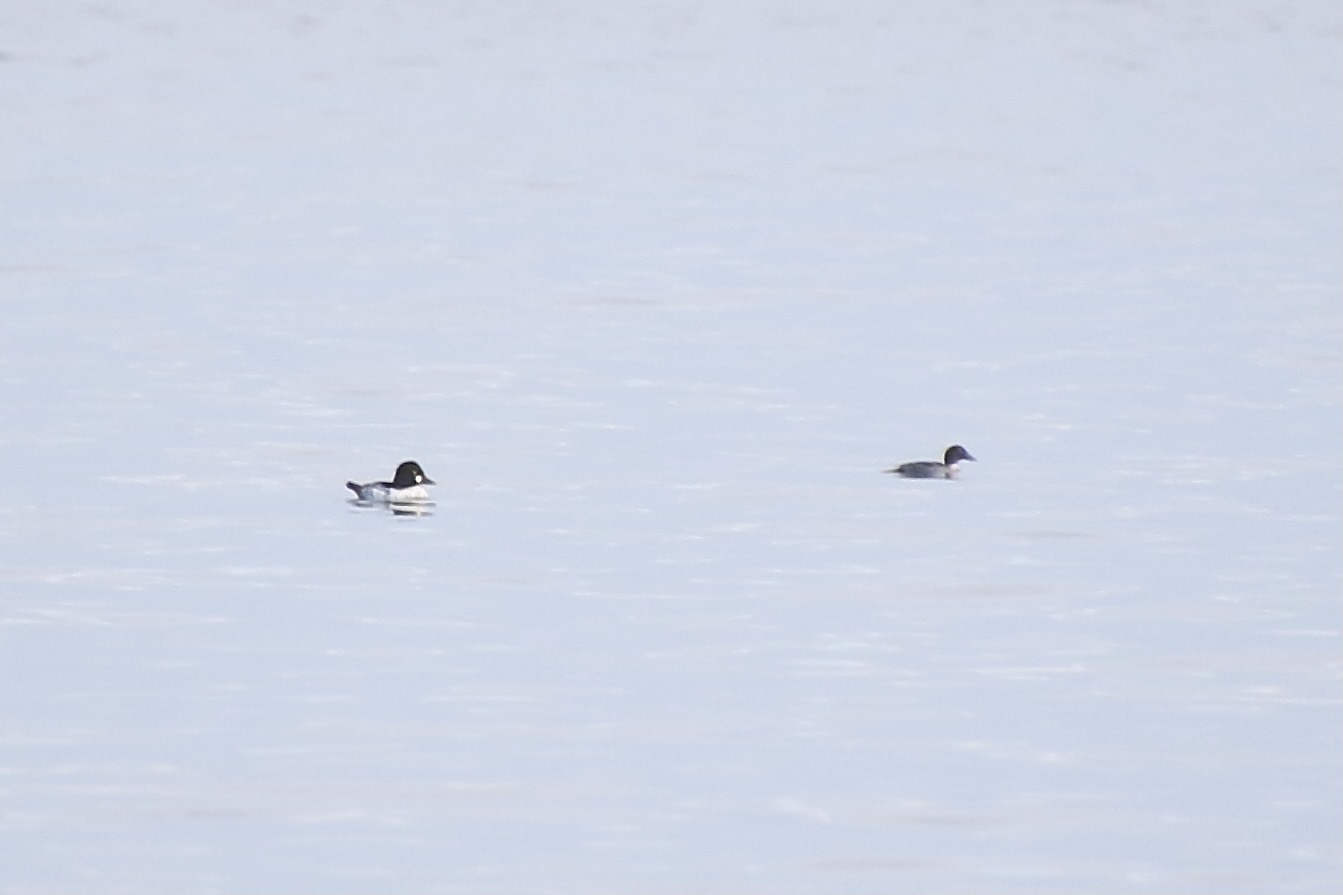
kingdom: Animalia
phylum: Chordata
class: Aves
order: Anseriformes
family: Anatidae
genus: Bucephala
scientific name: Bucephala clangula
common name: Common goldeneye
